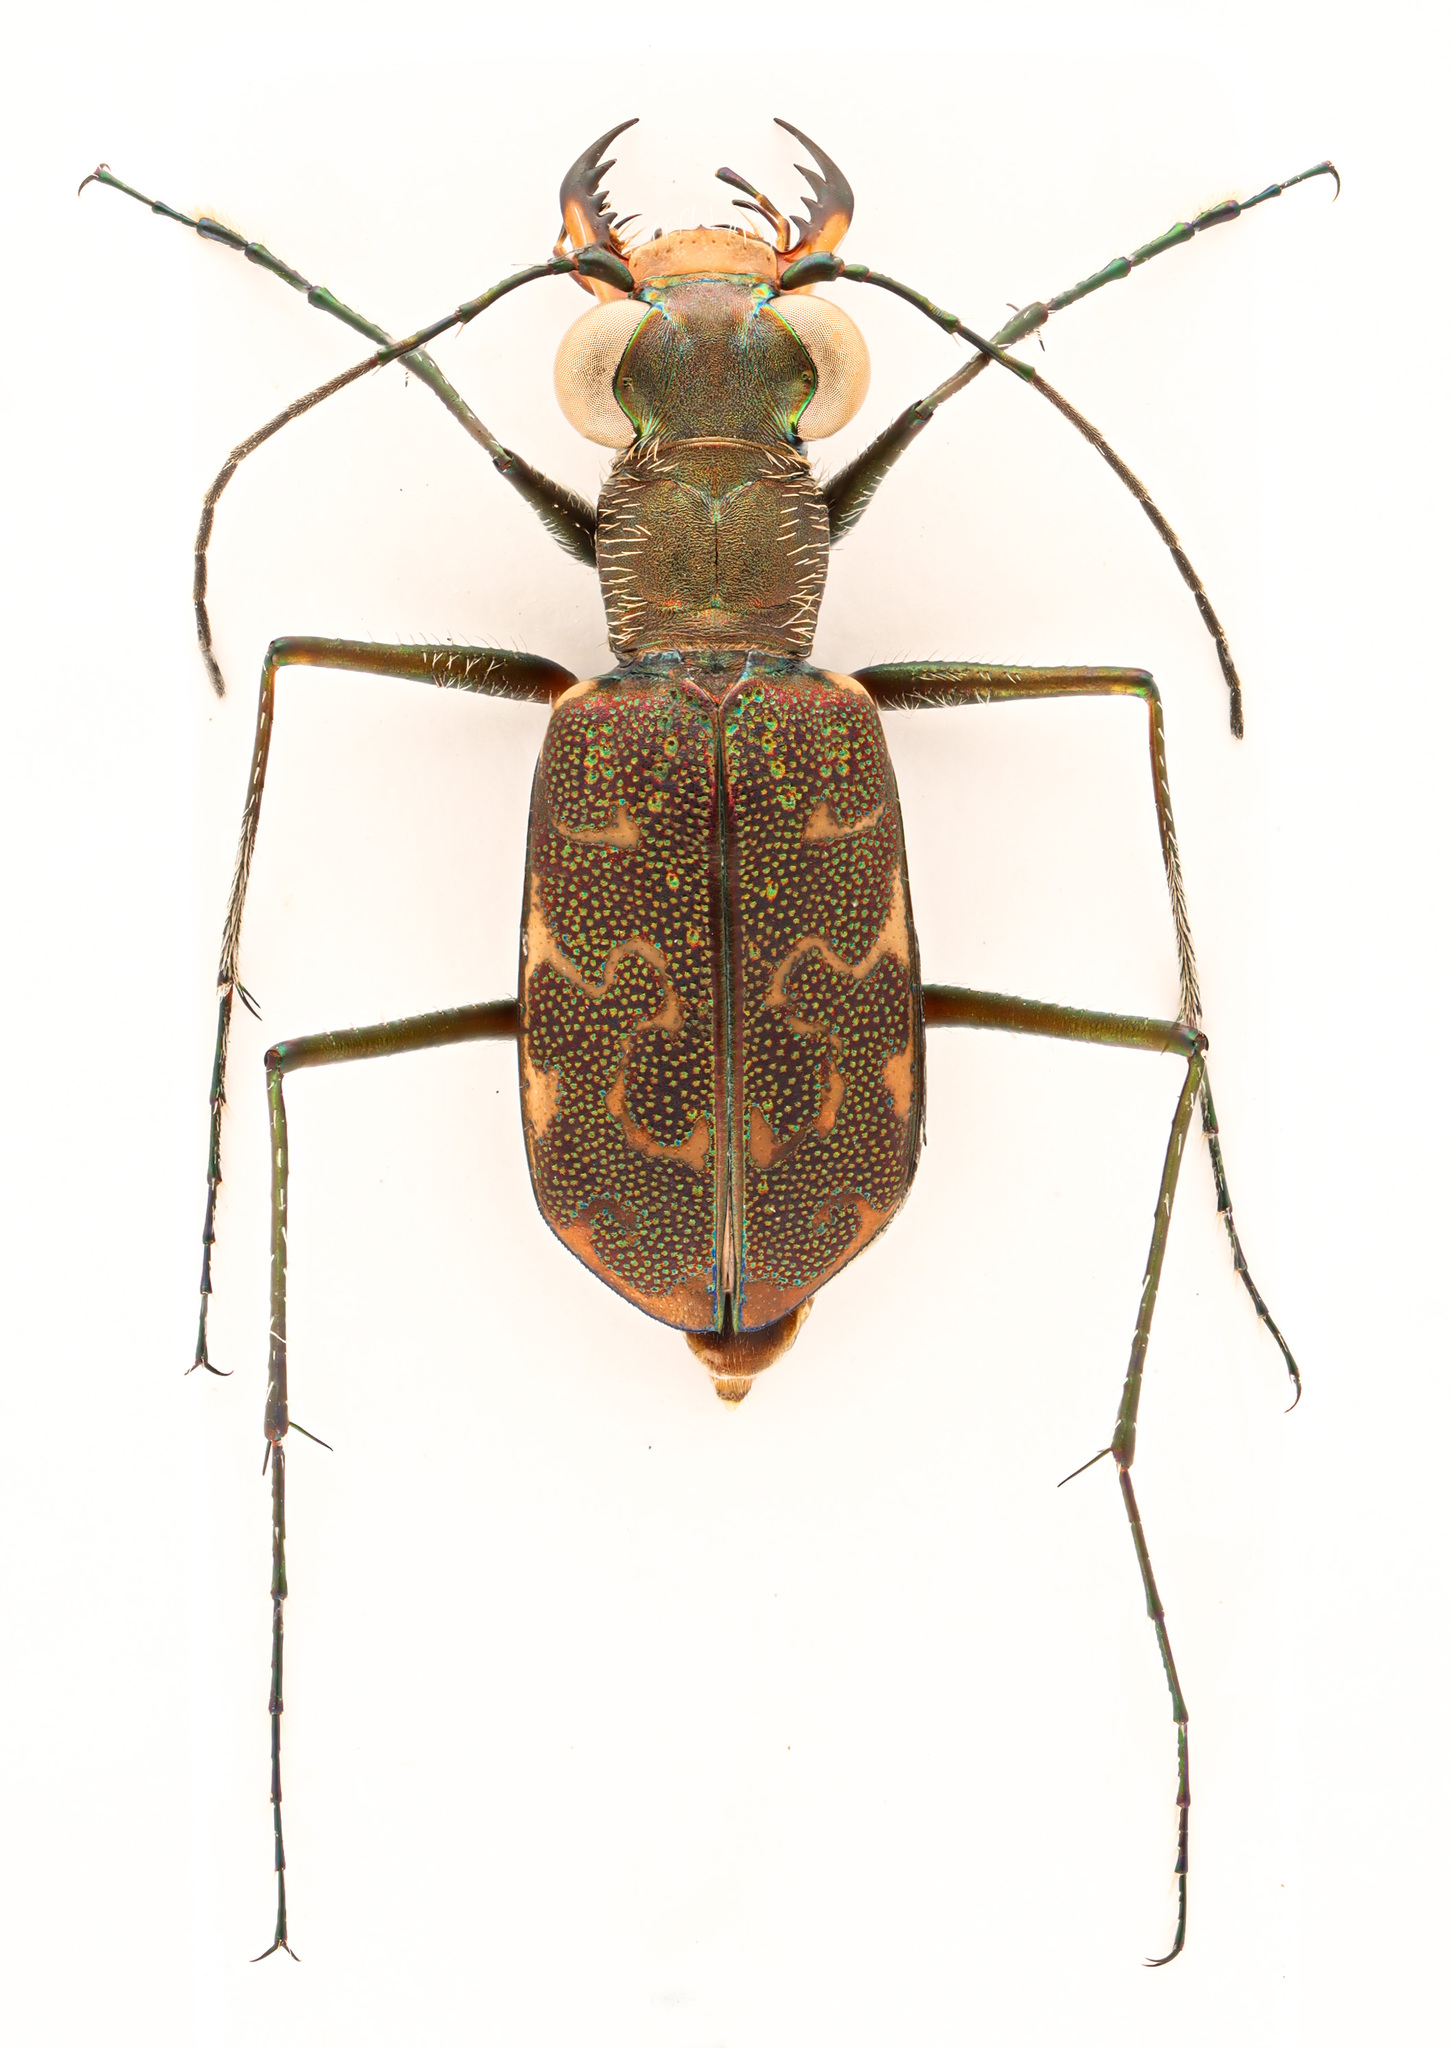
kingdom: Animalia
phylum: Arthropoda
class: Insecta
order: Coleoptera
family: Carabidae
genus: Cicindela
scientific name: Cicindela trifasciata
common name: Mudflat tiger beetle
